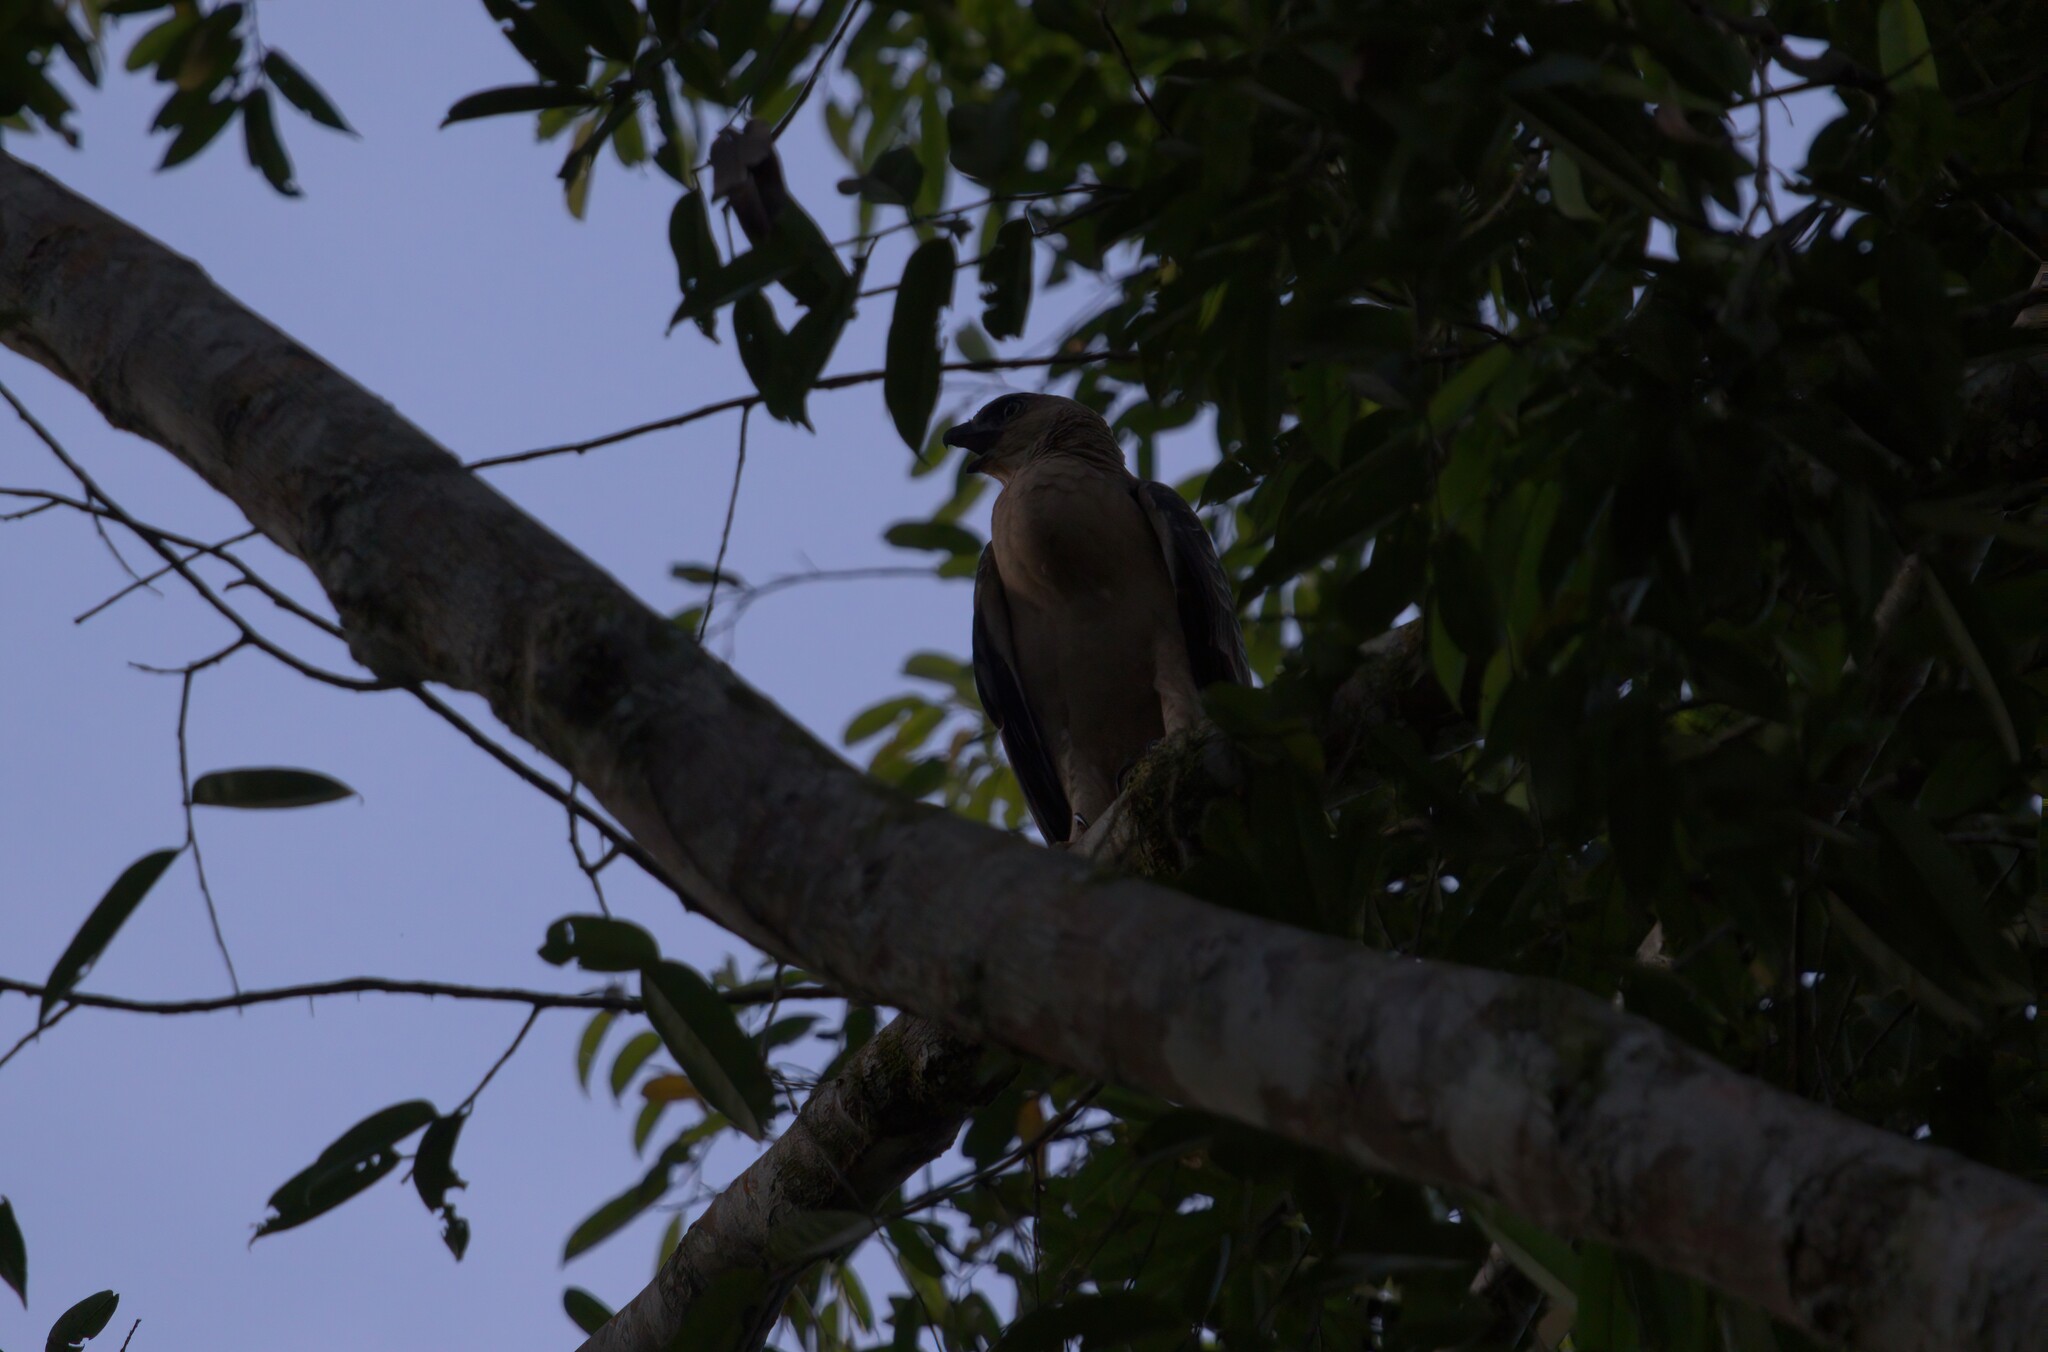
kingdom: Animalia
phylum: Chordata
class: Aves
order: Accipitriformes
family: Accipitridae
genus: Nisaetus
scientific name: Nisaetus nanus
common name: Wallace's hawk-eagle
